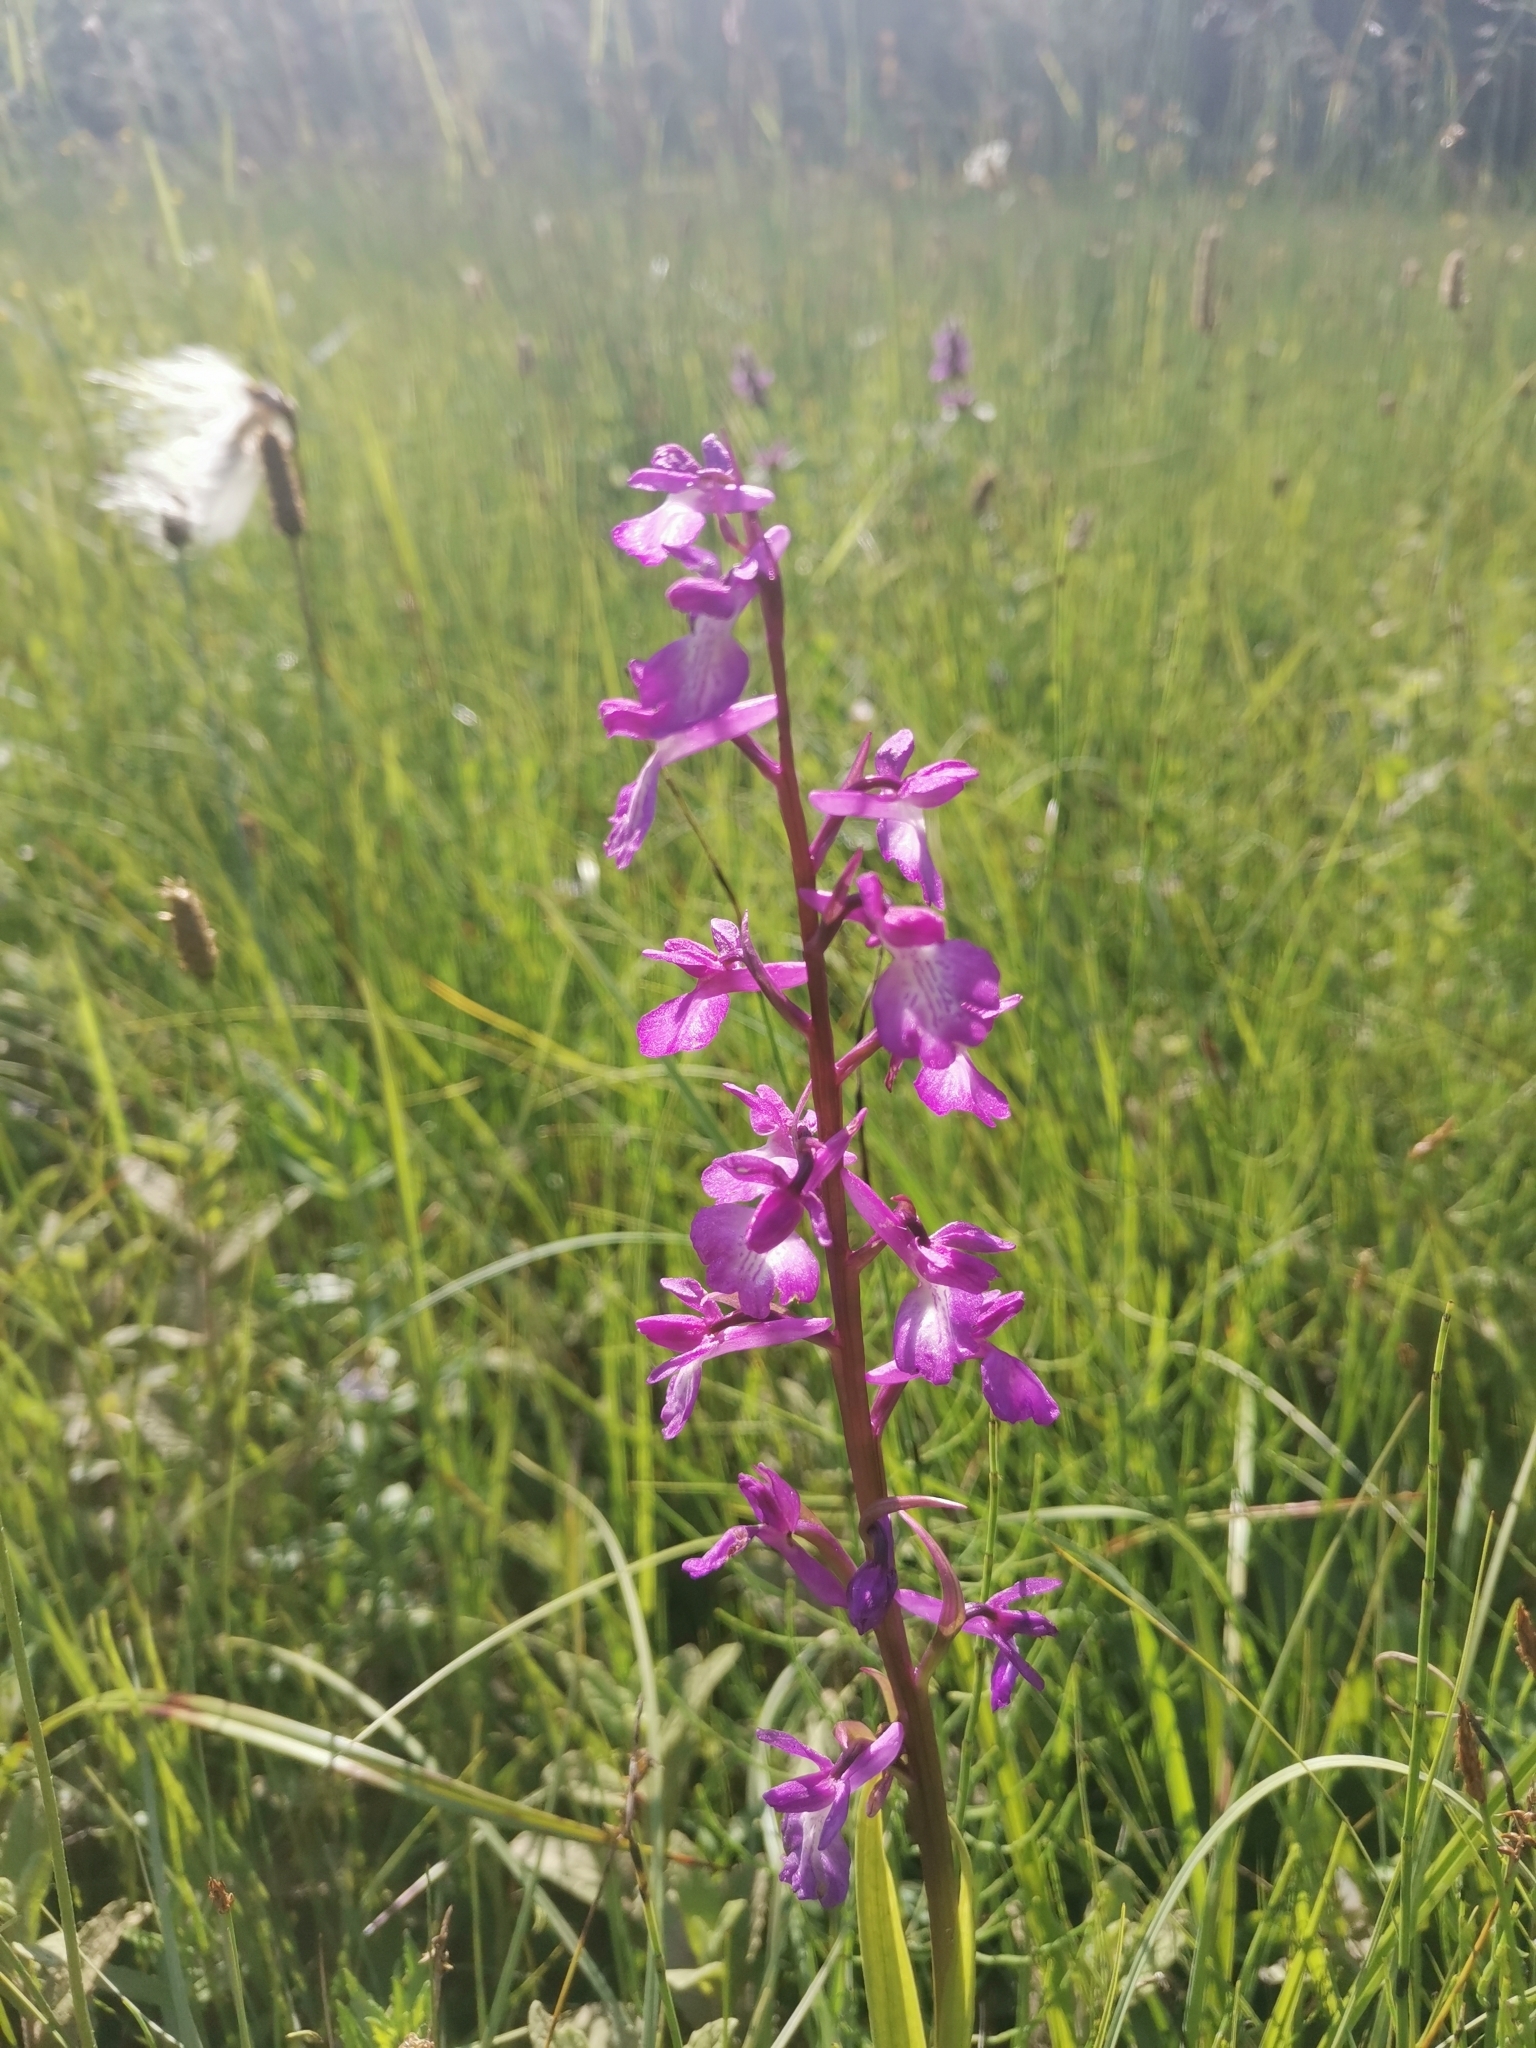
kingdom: Plantae
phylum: Tracheophyta
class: Liliopsida
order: Asparagales
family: Orchidaceae
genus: Anacamptis
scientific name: Anacamptis palustris
